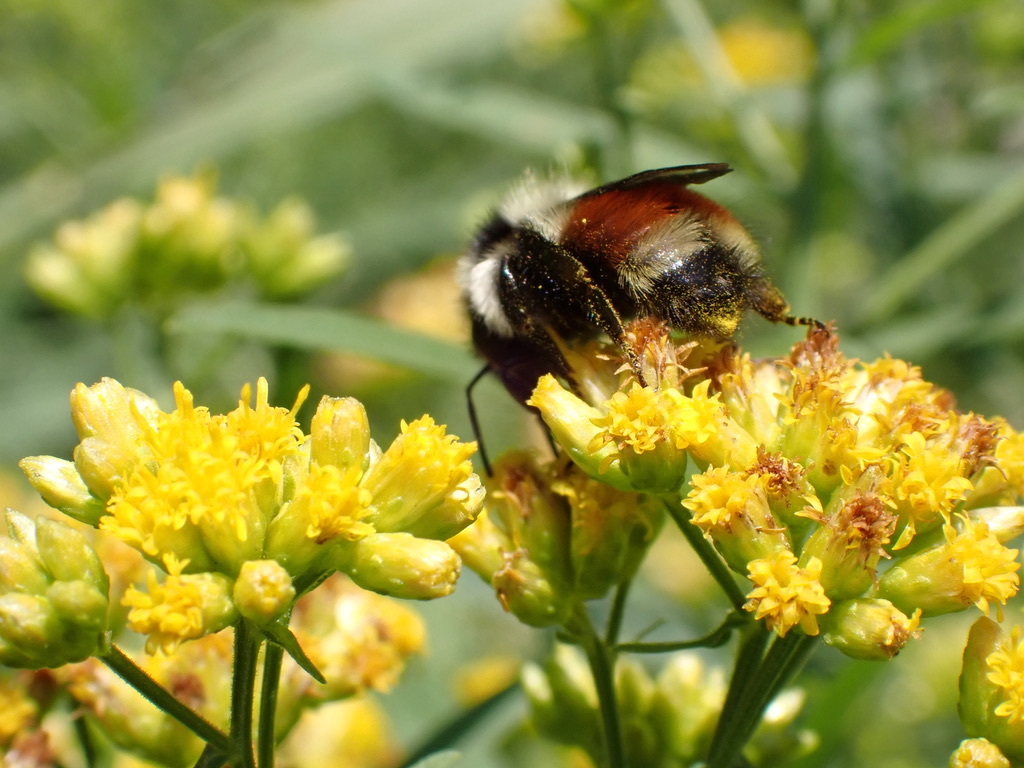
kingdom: Animalia
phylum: Arthropoda
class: Insecta
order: Hymenoptera
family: Apidae
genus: Bombus
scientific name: Bombus ternarius
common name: Tri-colored bumble bee
